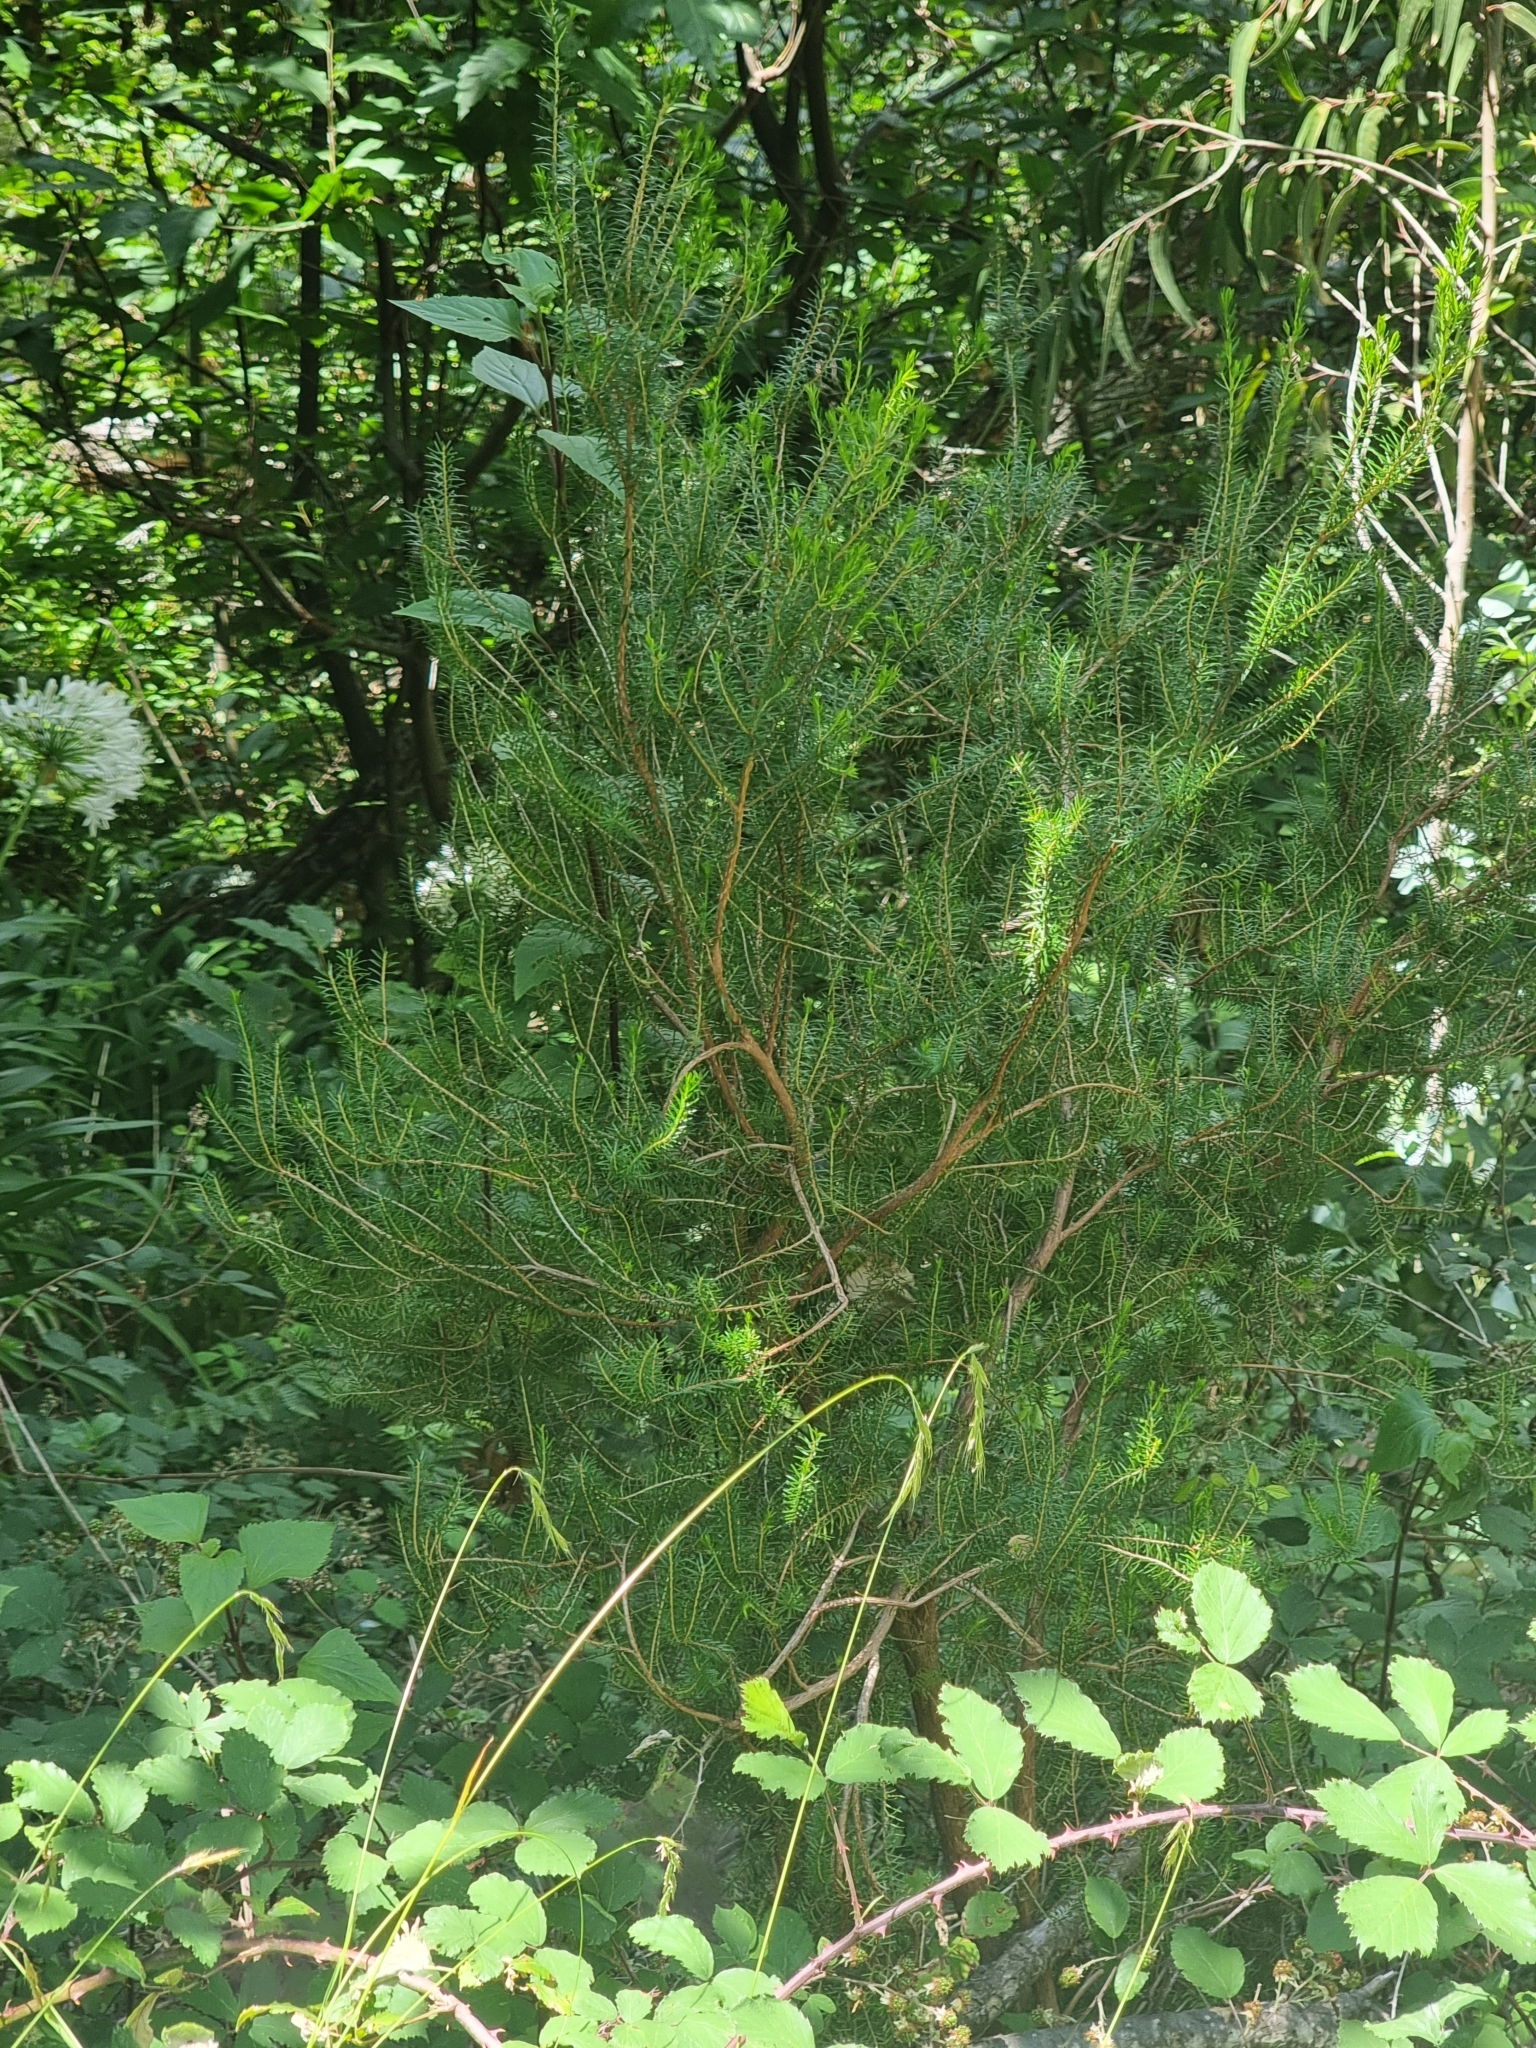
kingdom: Plantae
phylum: Tracheophyta
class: Magnoliopsida
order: Ericales
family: Ericaceae
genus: Erica
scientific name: Erica platycodon
